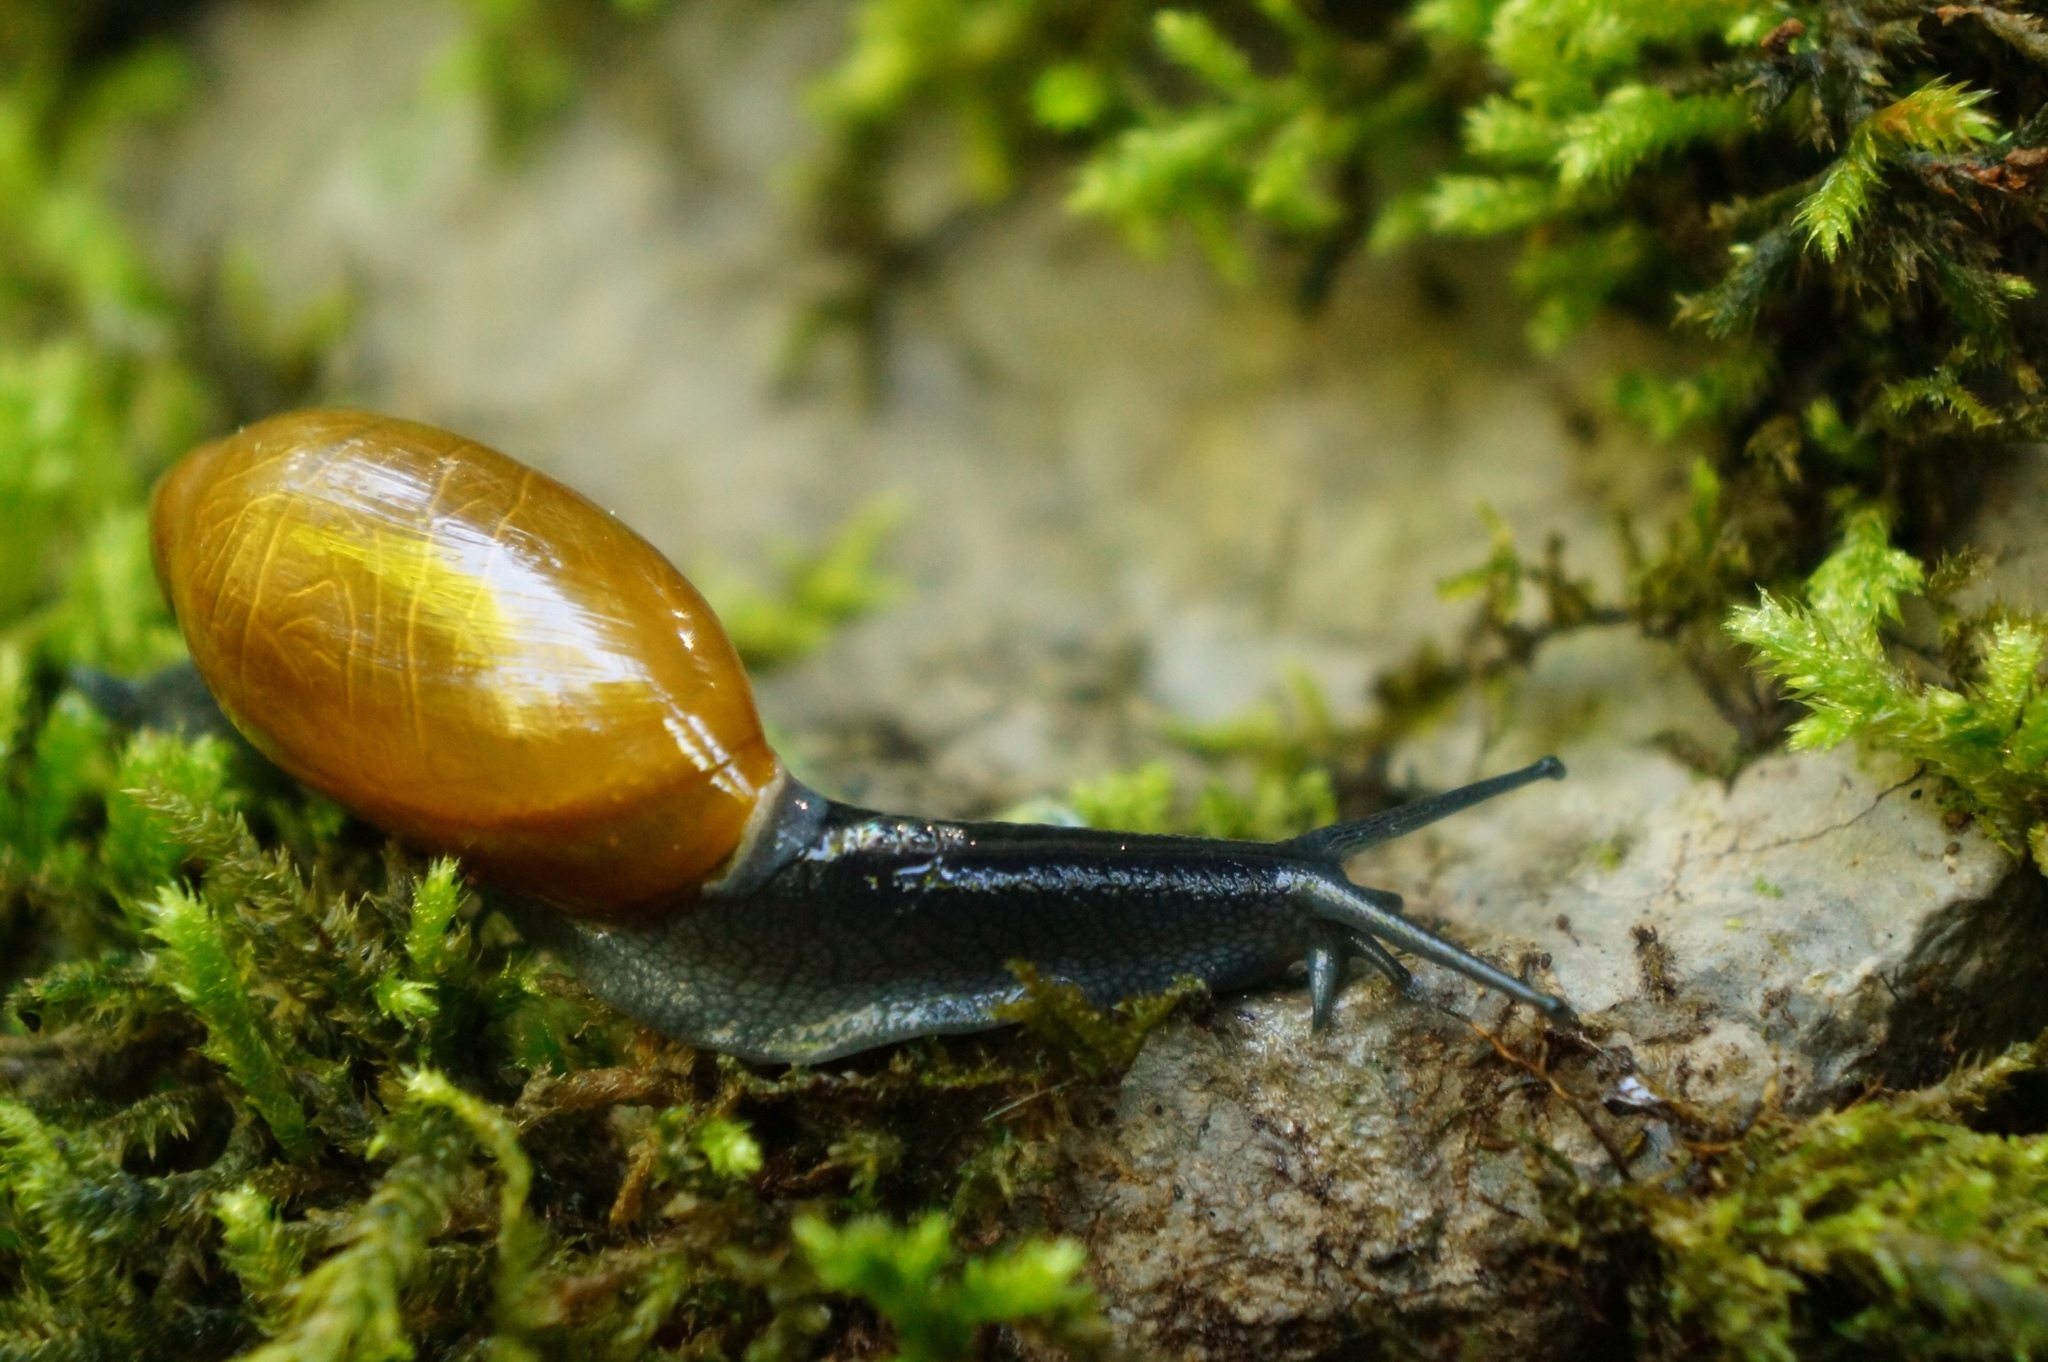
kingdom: Animalia
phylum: Mollusca
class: Gastropoda
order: Stylommatophora
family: Spiraxidae
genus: Streptostyla
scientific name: Streptostyla
